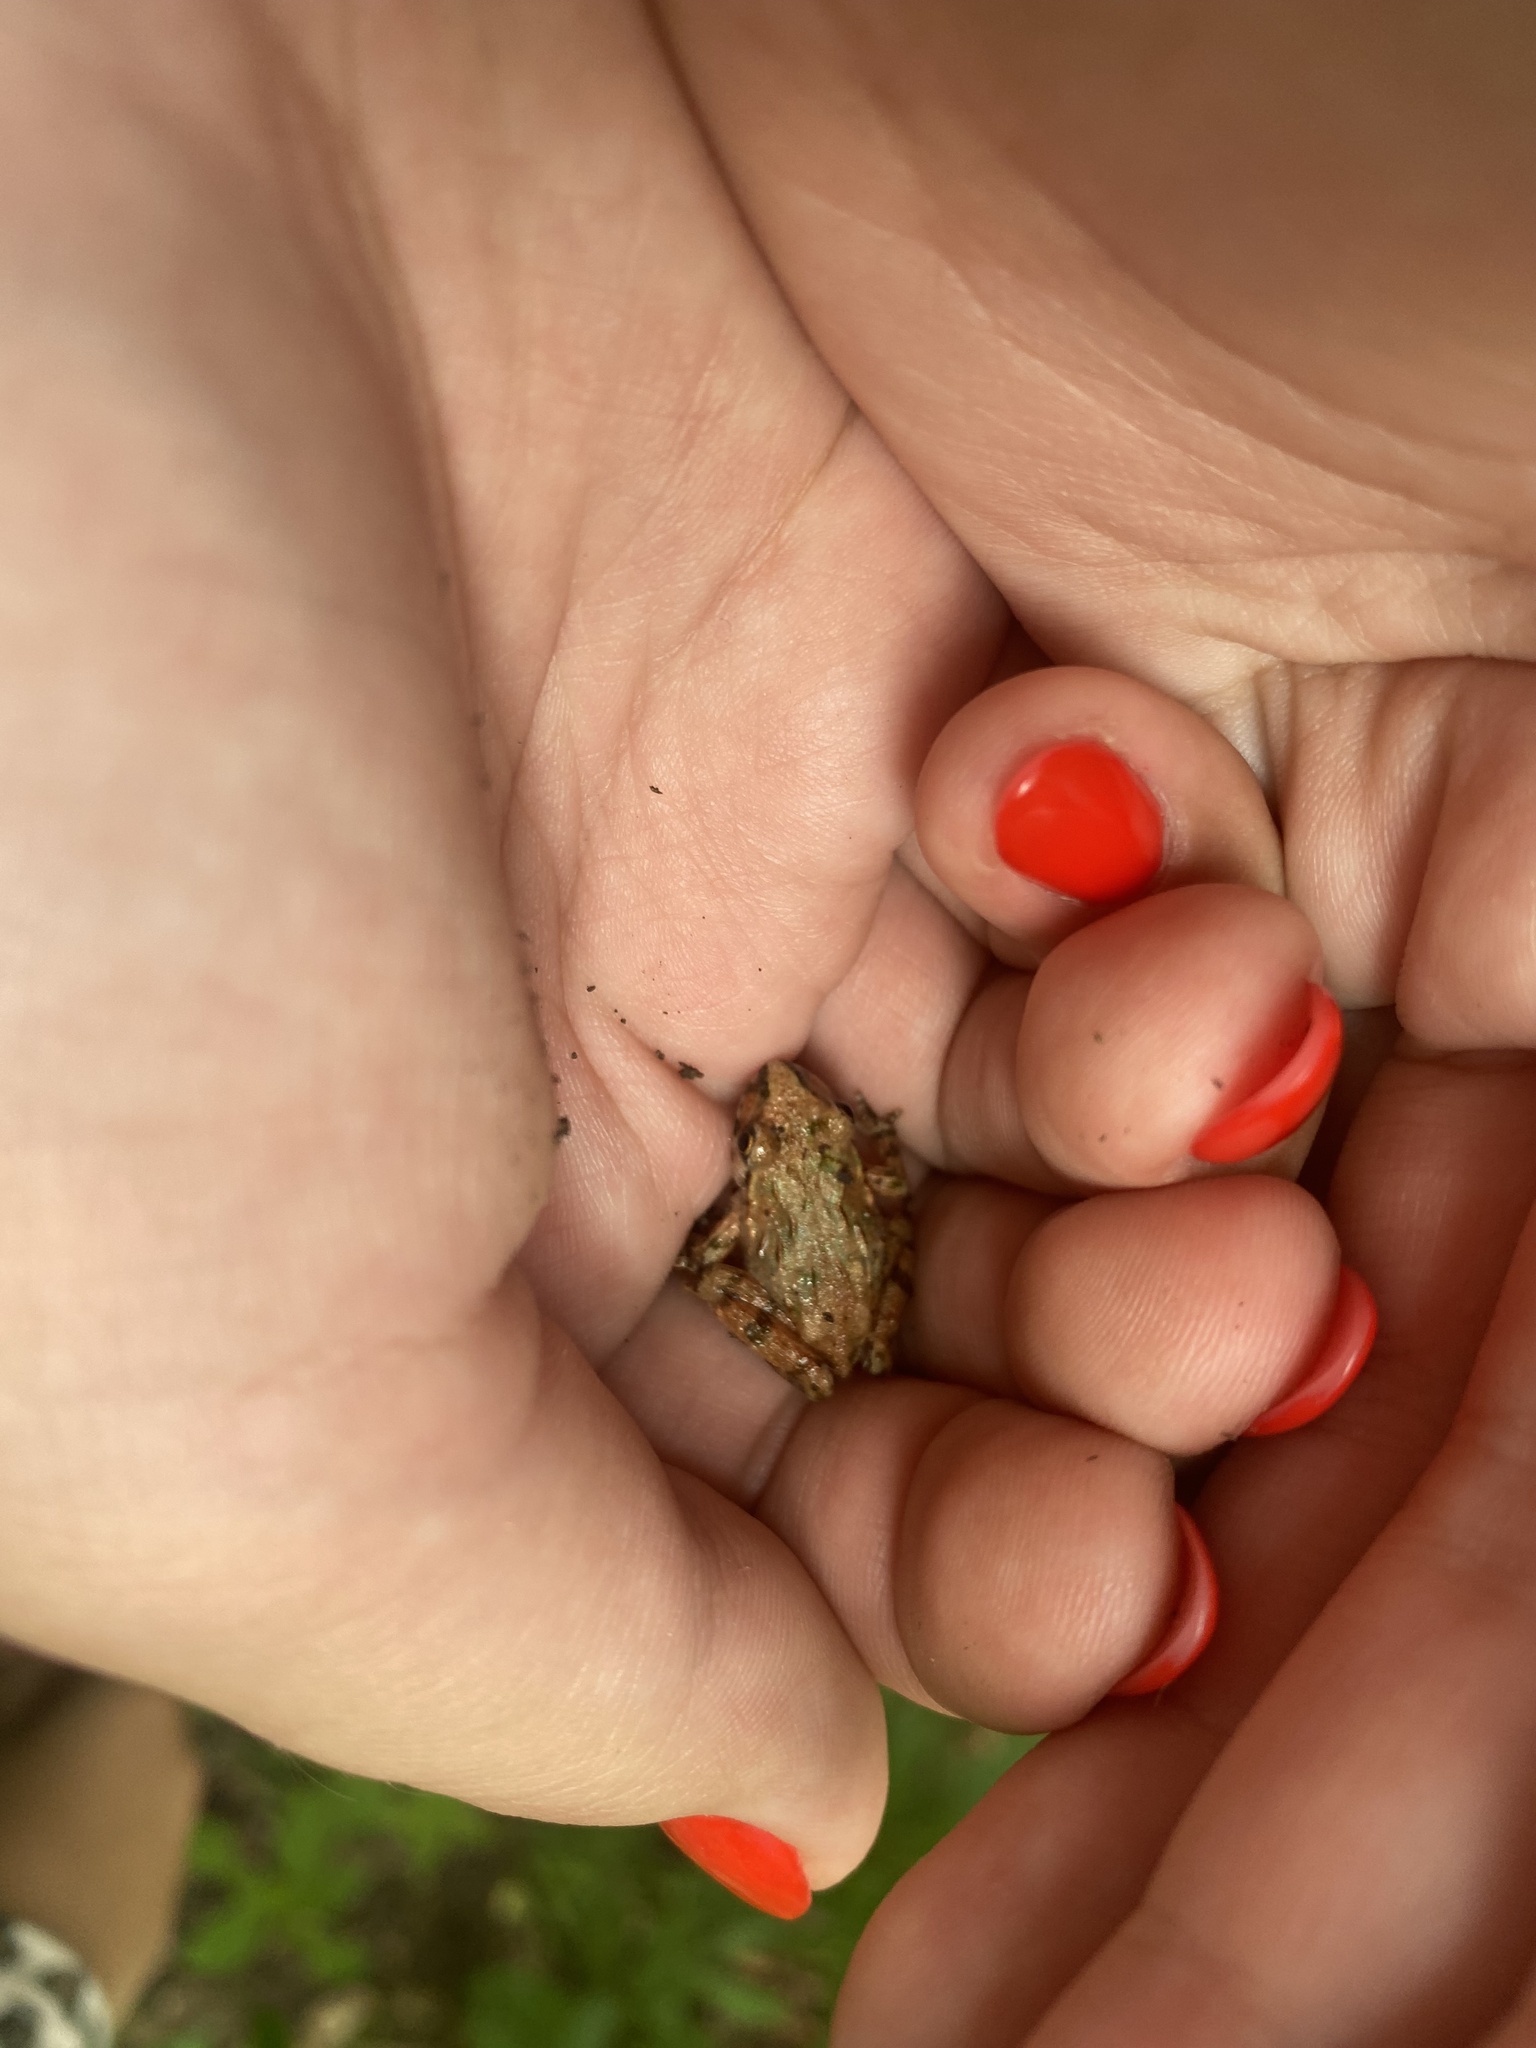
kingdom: Animalia
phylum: Chordata
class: Amphibia
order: Anura
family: Pelodytidae
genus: Pelodytes
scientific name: Pelodytes caucasicus
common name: Caucasus parsley frog
